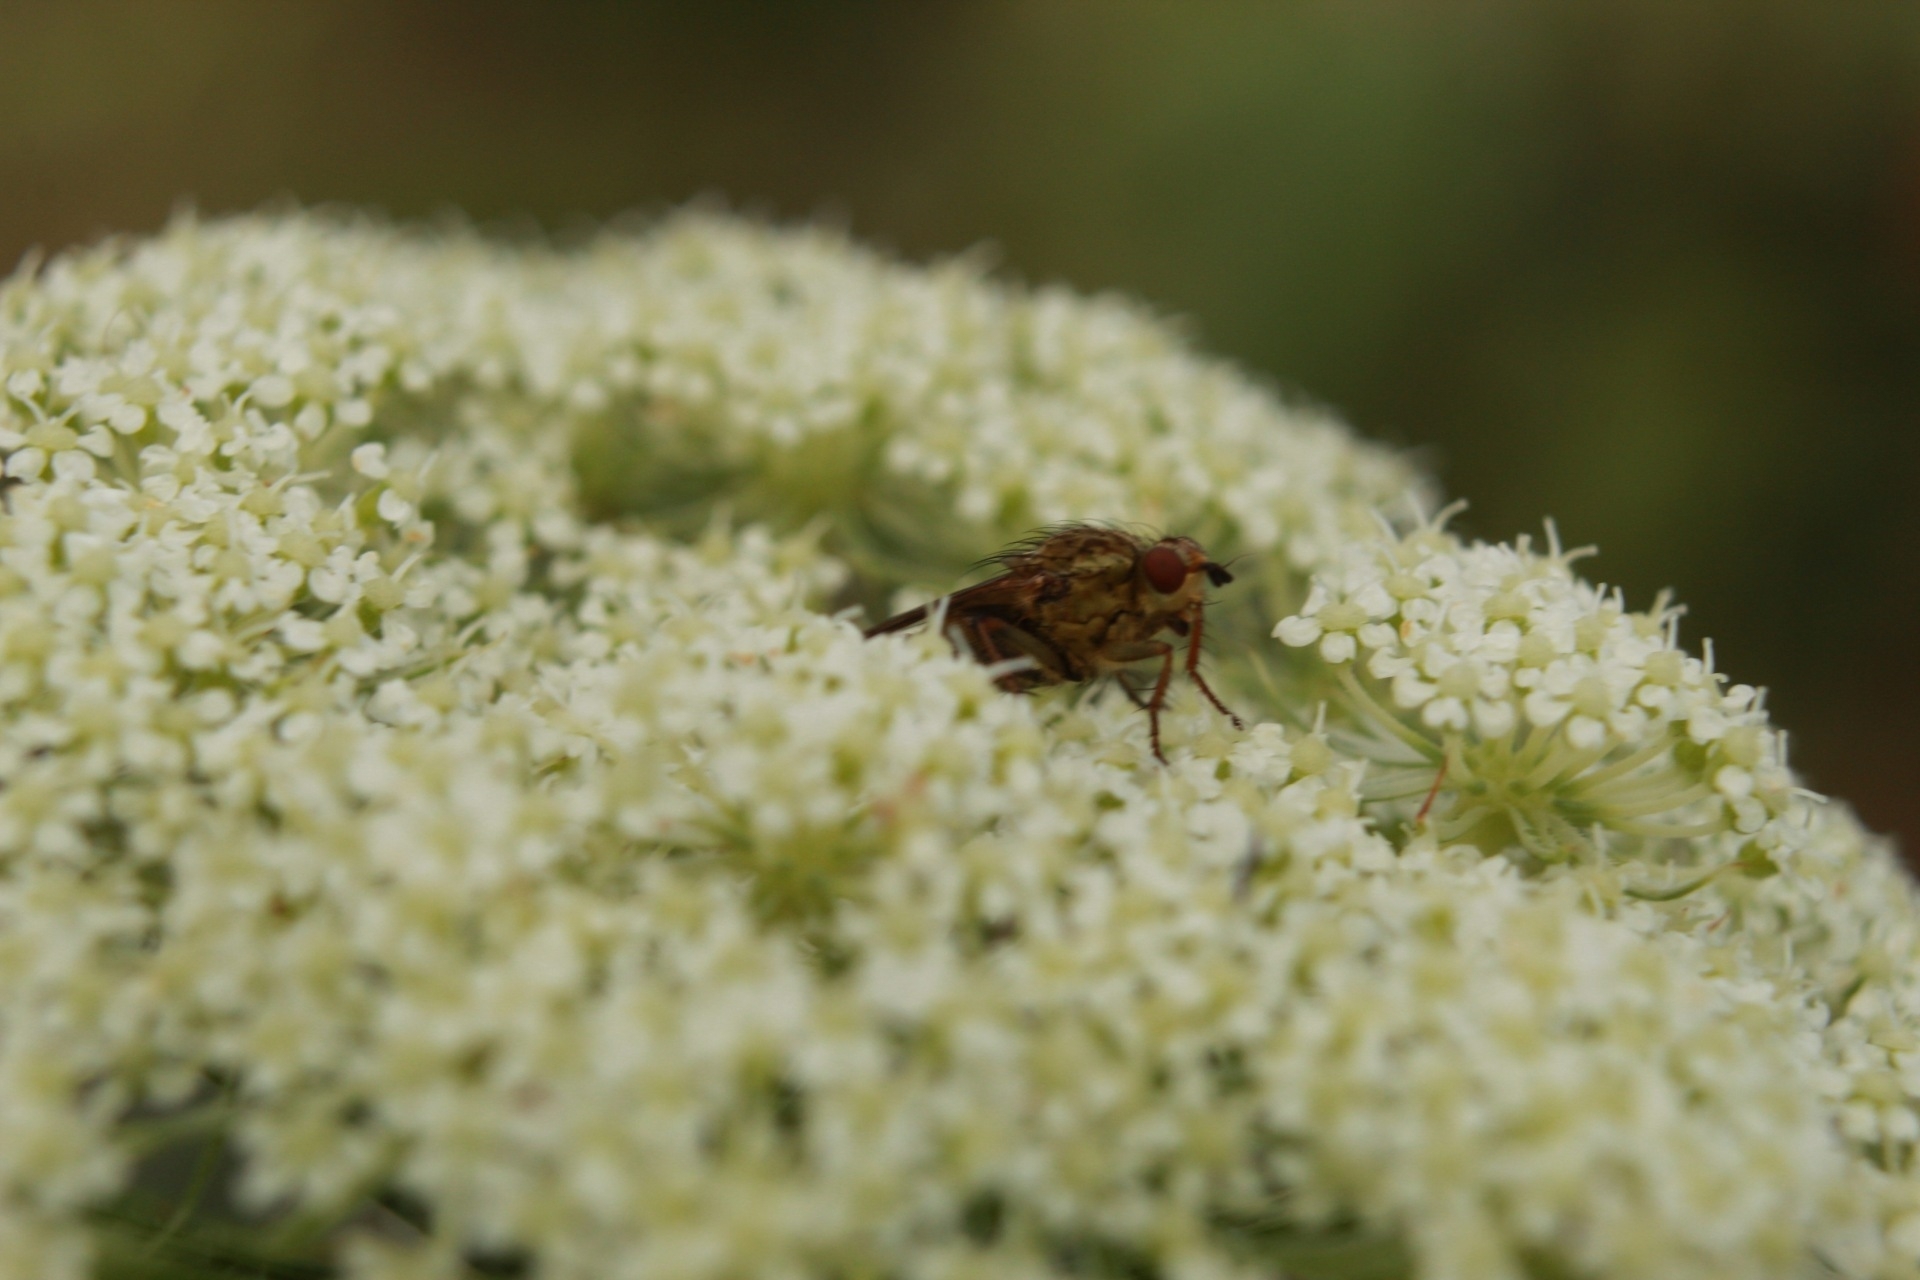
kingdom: Animalia
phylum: Arthropoda
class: Insecta
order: Diptera
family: Scathophagidae
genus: Scathophaga
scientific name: Scathophaga stercoraria
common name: Yellow dung fly
